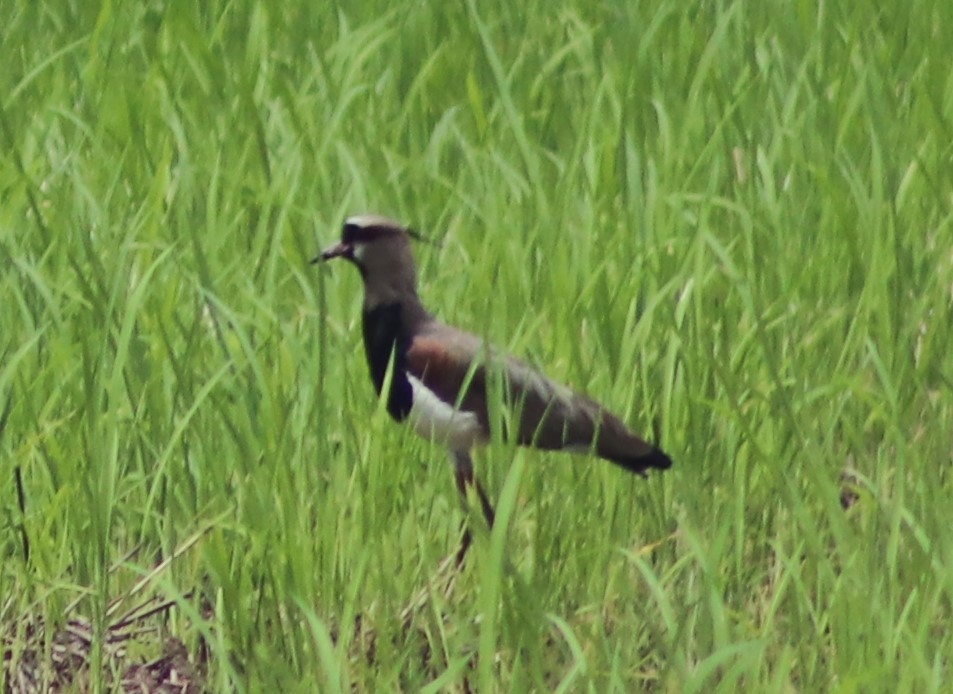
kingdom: Animalia
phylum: Chordata
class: Aves
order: Charadriiformes
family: Charadriidae
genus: Vanellus
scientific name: Vanellus chilensis
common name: Southern lapwing
